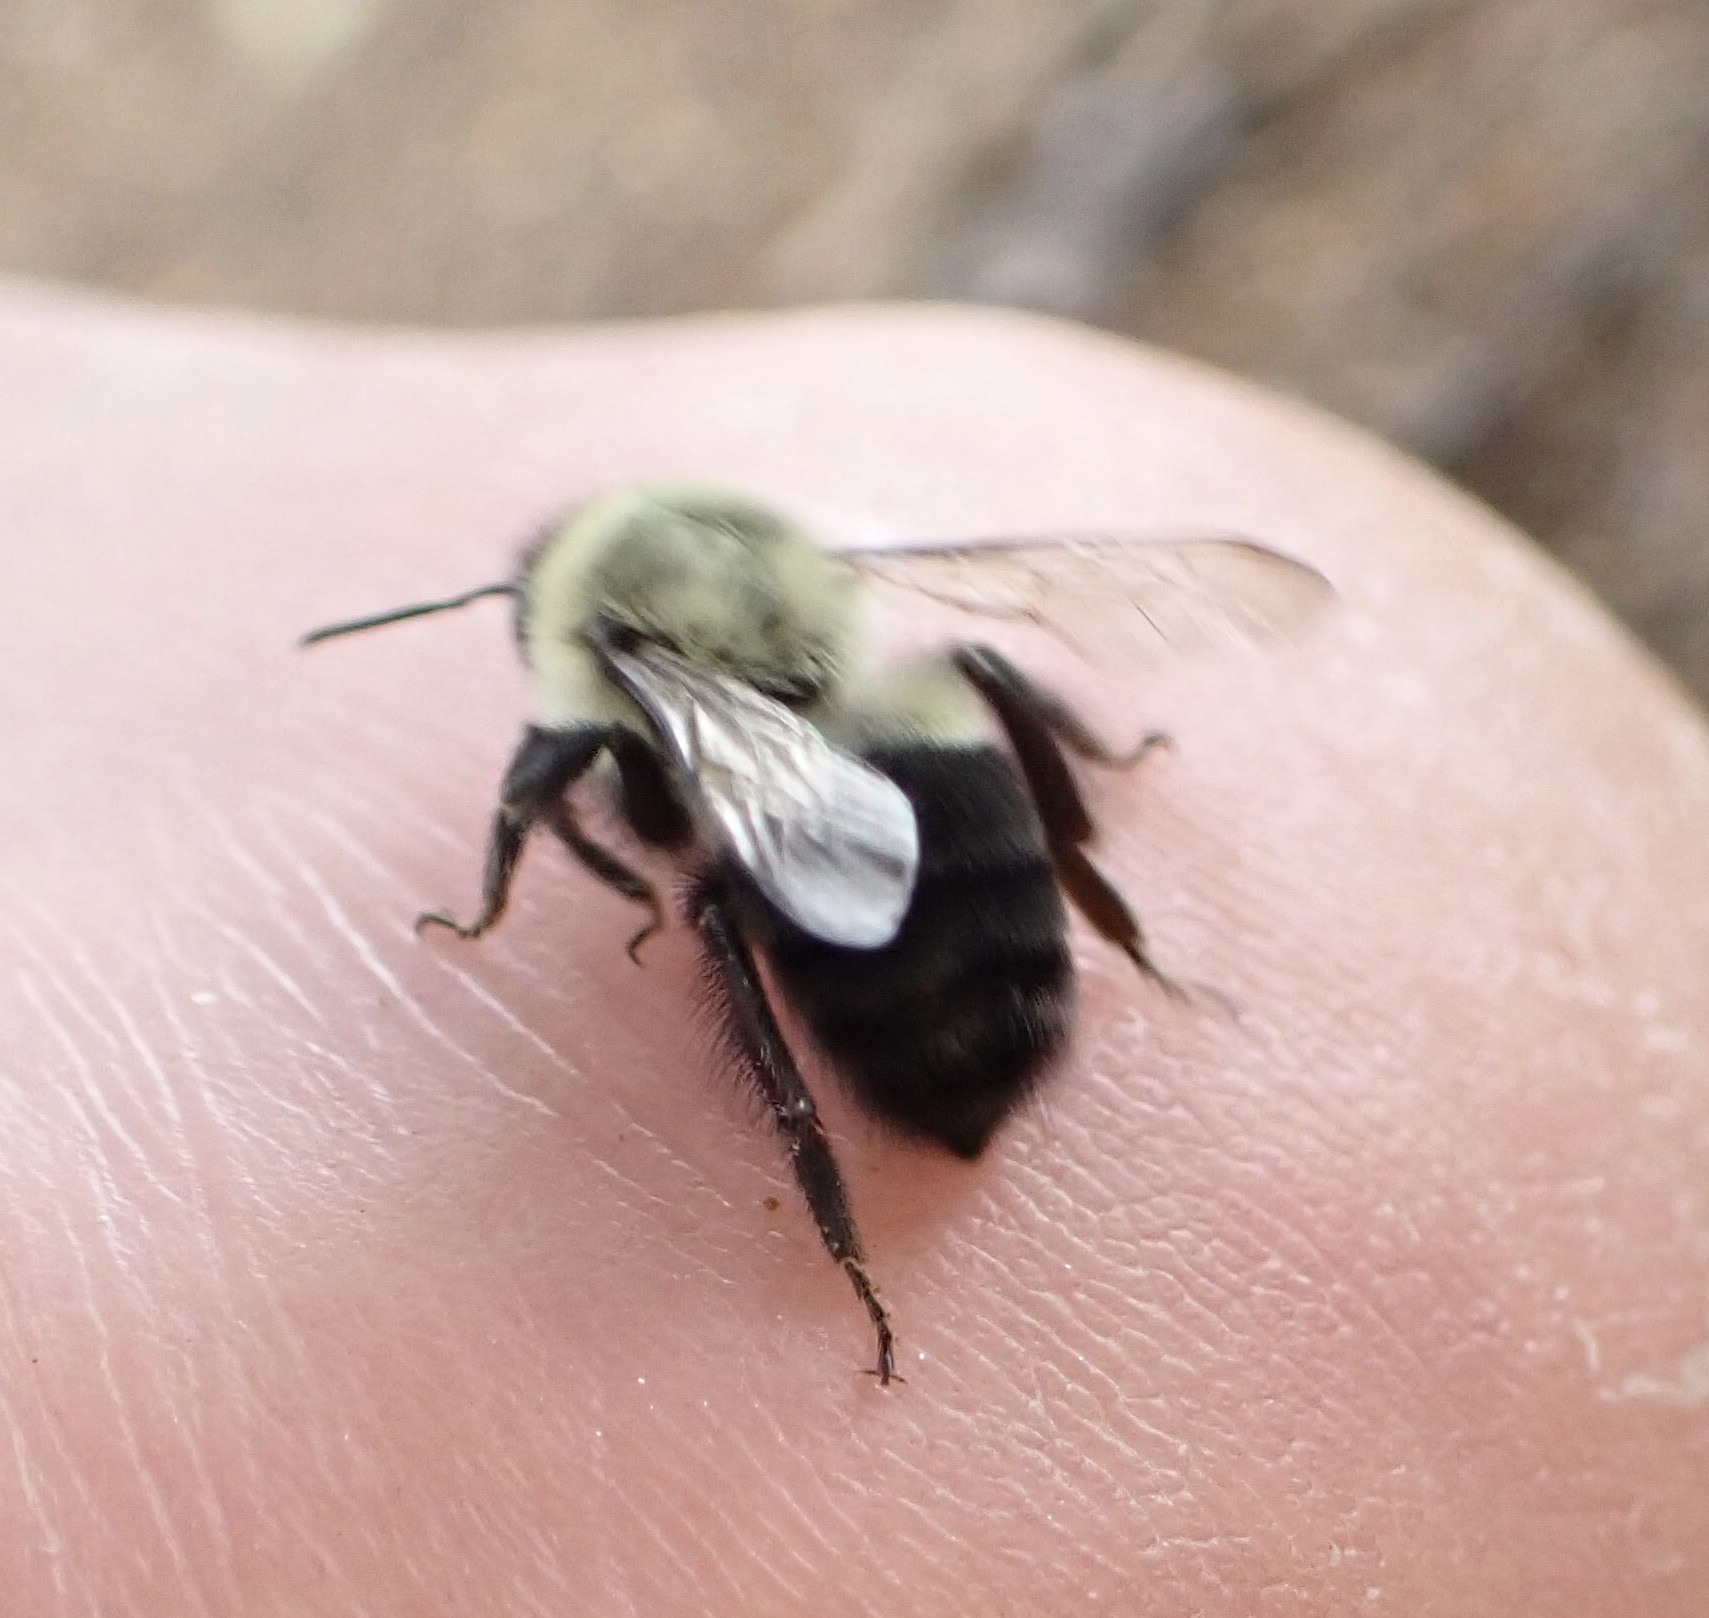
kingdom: Animalia
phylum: Arthropoda
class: Insecta
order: Hymenoptera
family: Apidae
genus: Bombus
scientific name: Bombus impatiens
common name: Common eastern bumble bee
